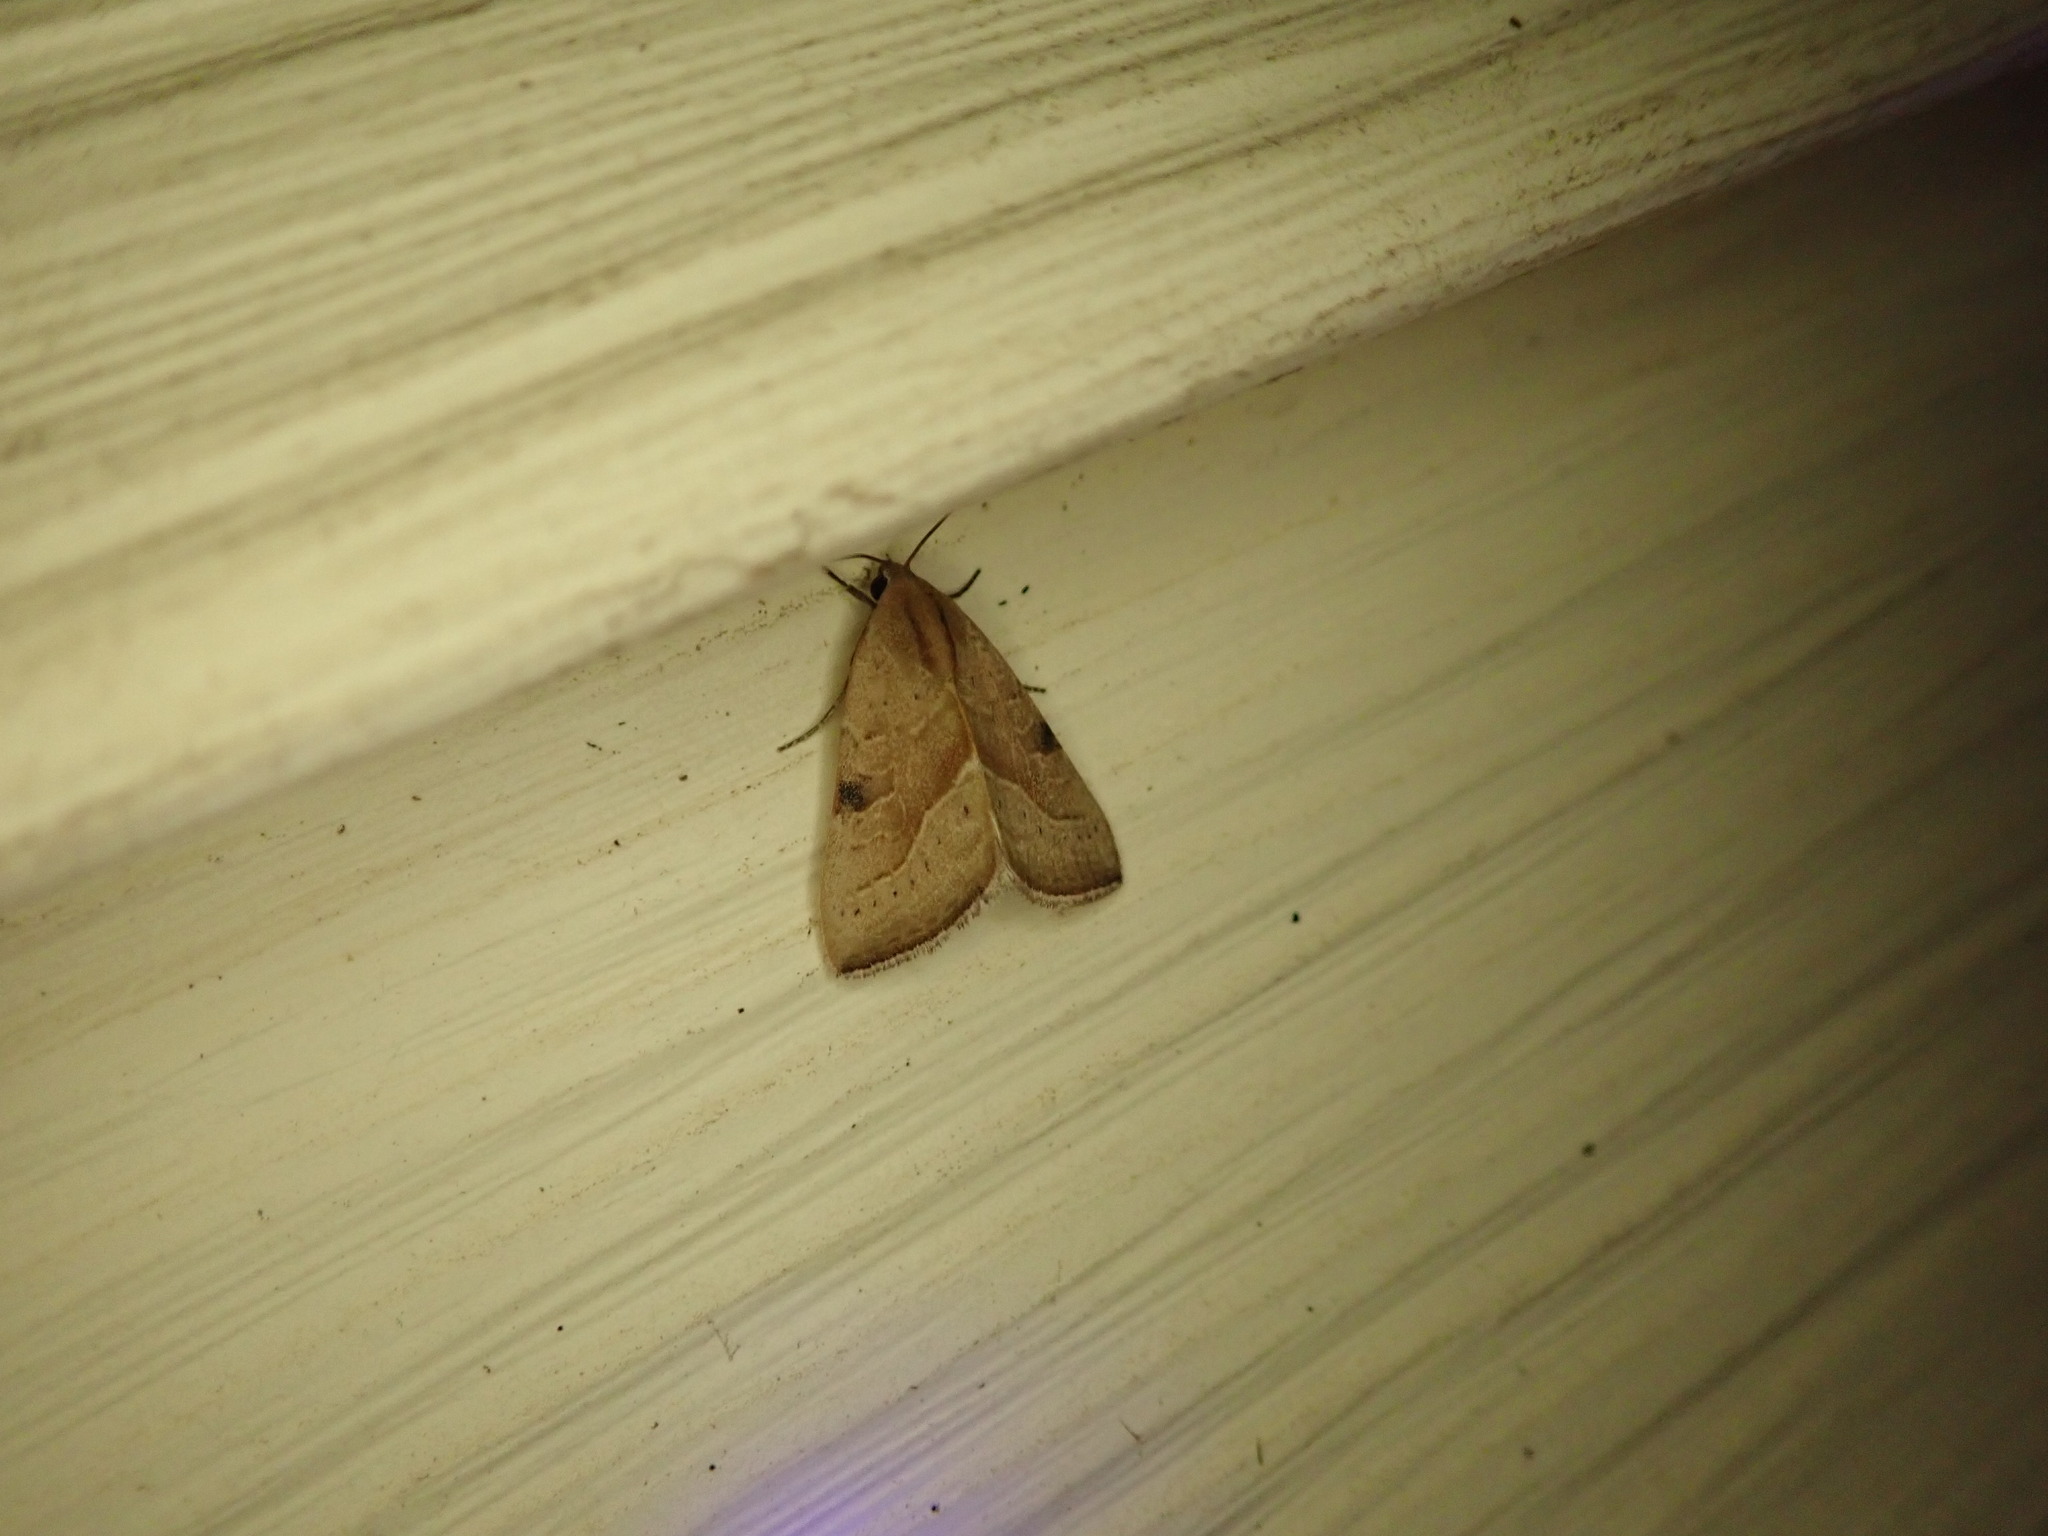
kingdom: Animalia
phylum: Arthropoda
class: Insecta
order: Lepidoptera
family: Noctuidae
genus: Galgula
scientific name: Galgula partita
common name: Wedgeling
